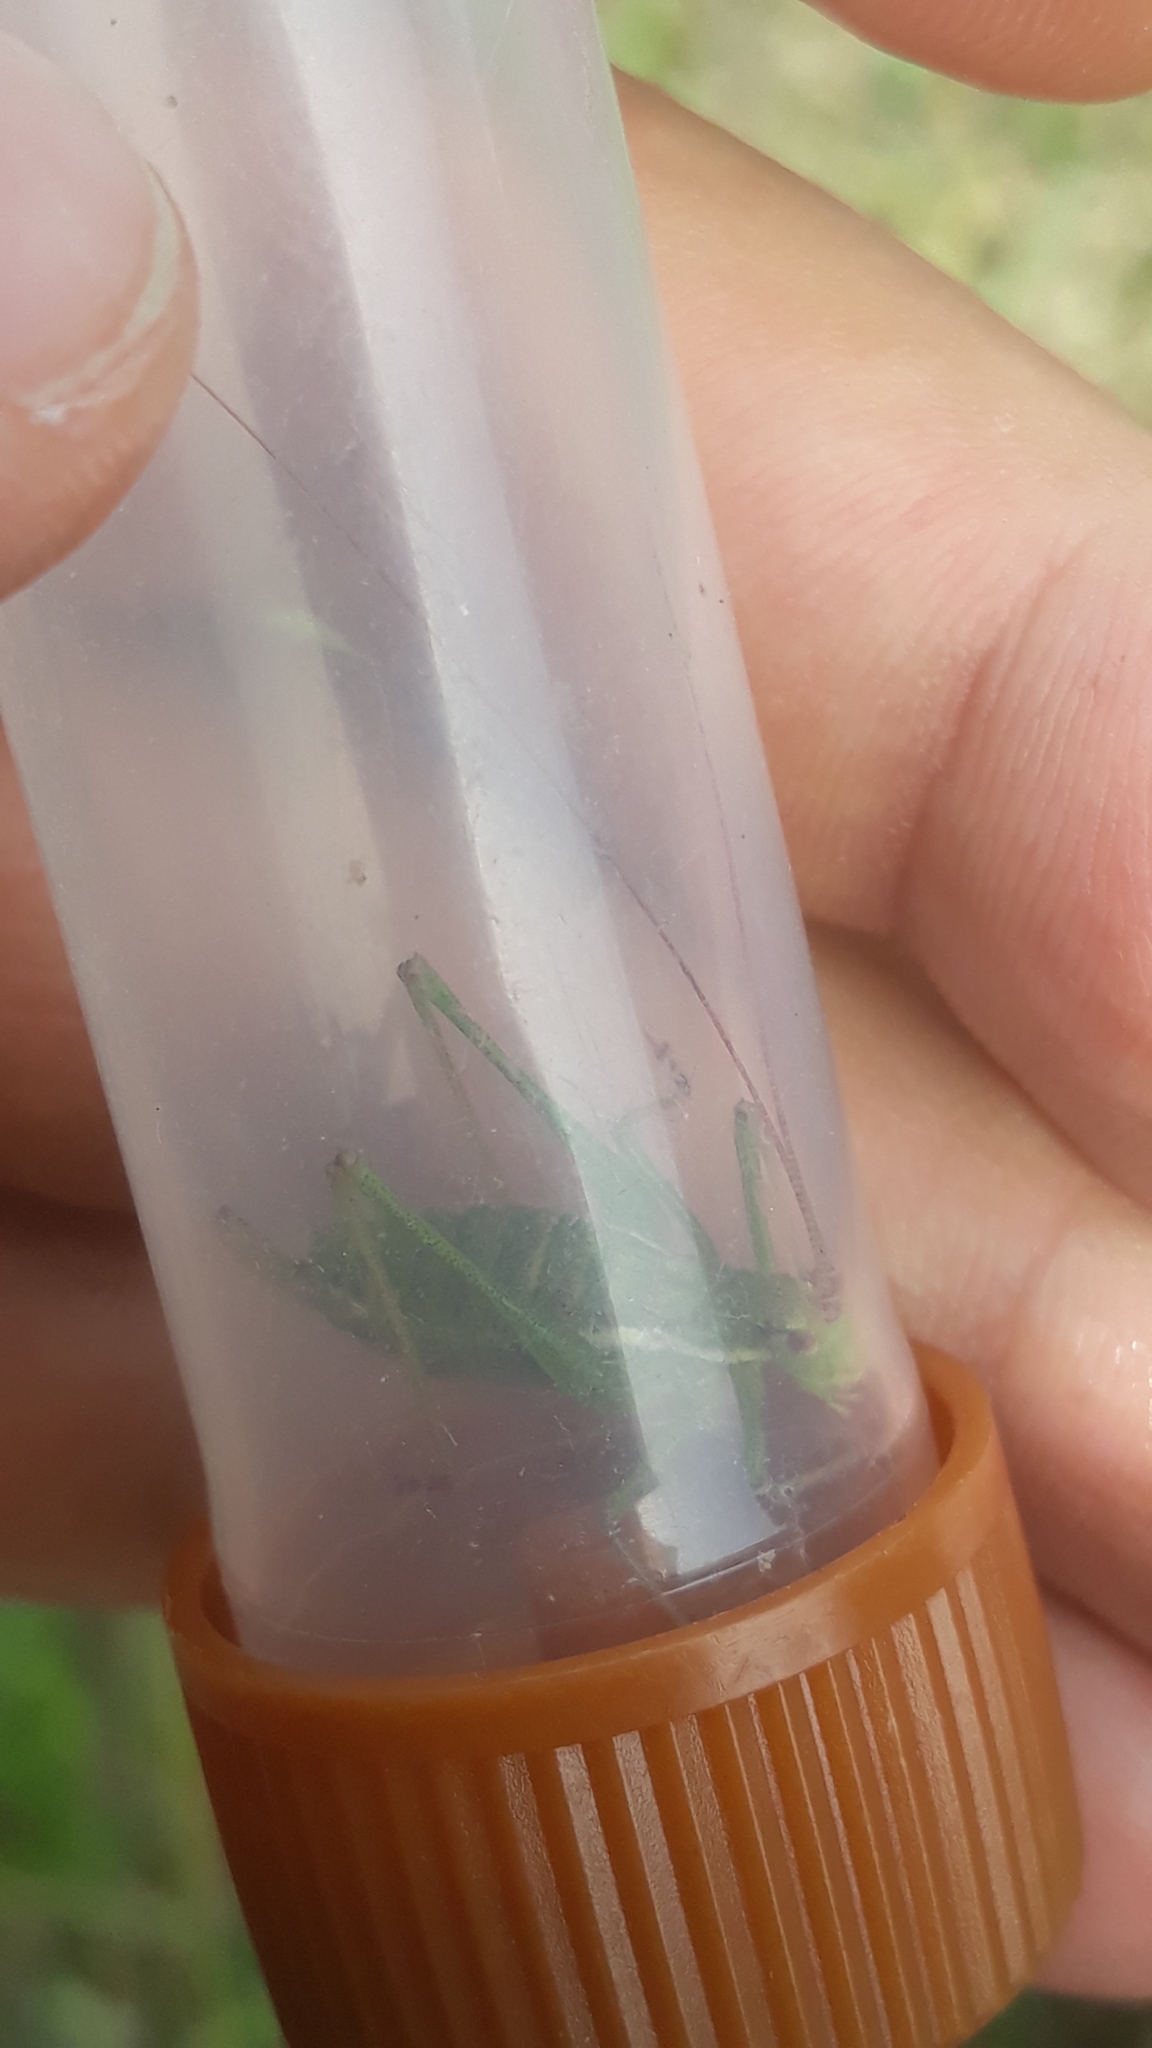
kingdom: Animalia
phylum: Arthropoda
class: Insecta
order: Orthoptera
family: Tettigoniidae
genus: Leptophyes
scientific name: Leptophyes albovittata
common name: Striped bush-cricket
